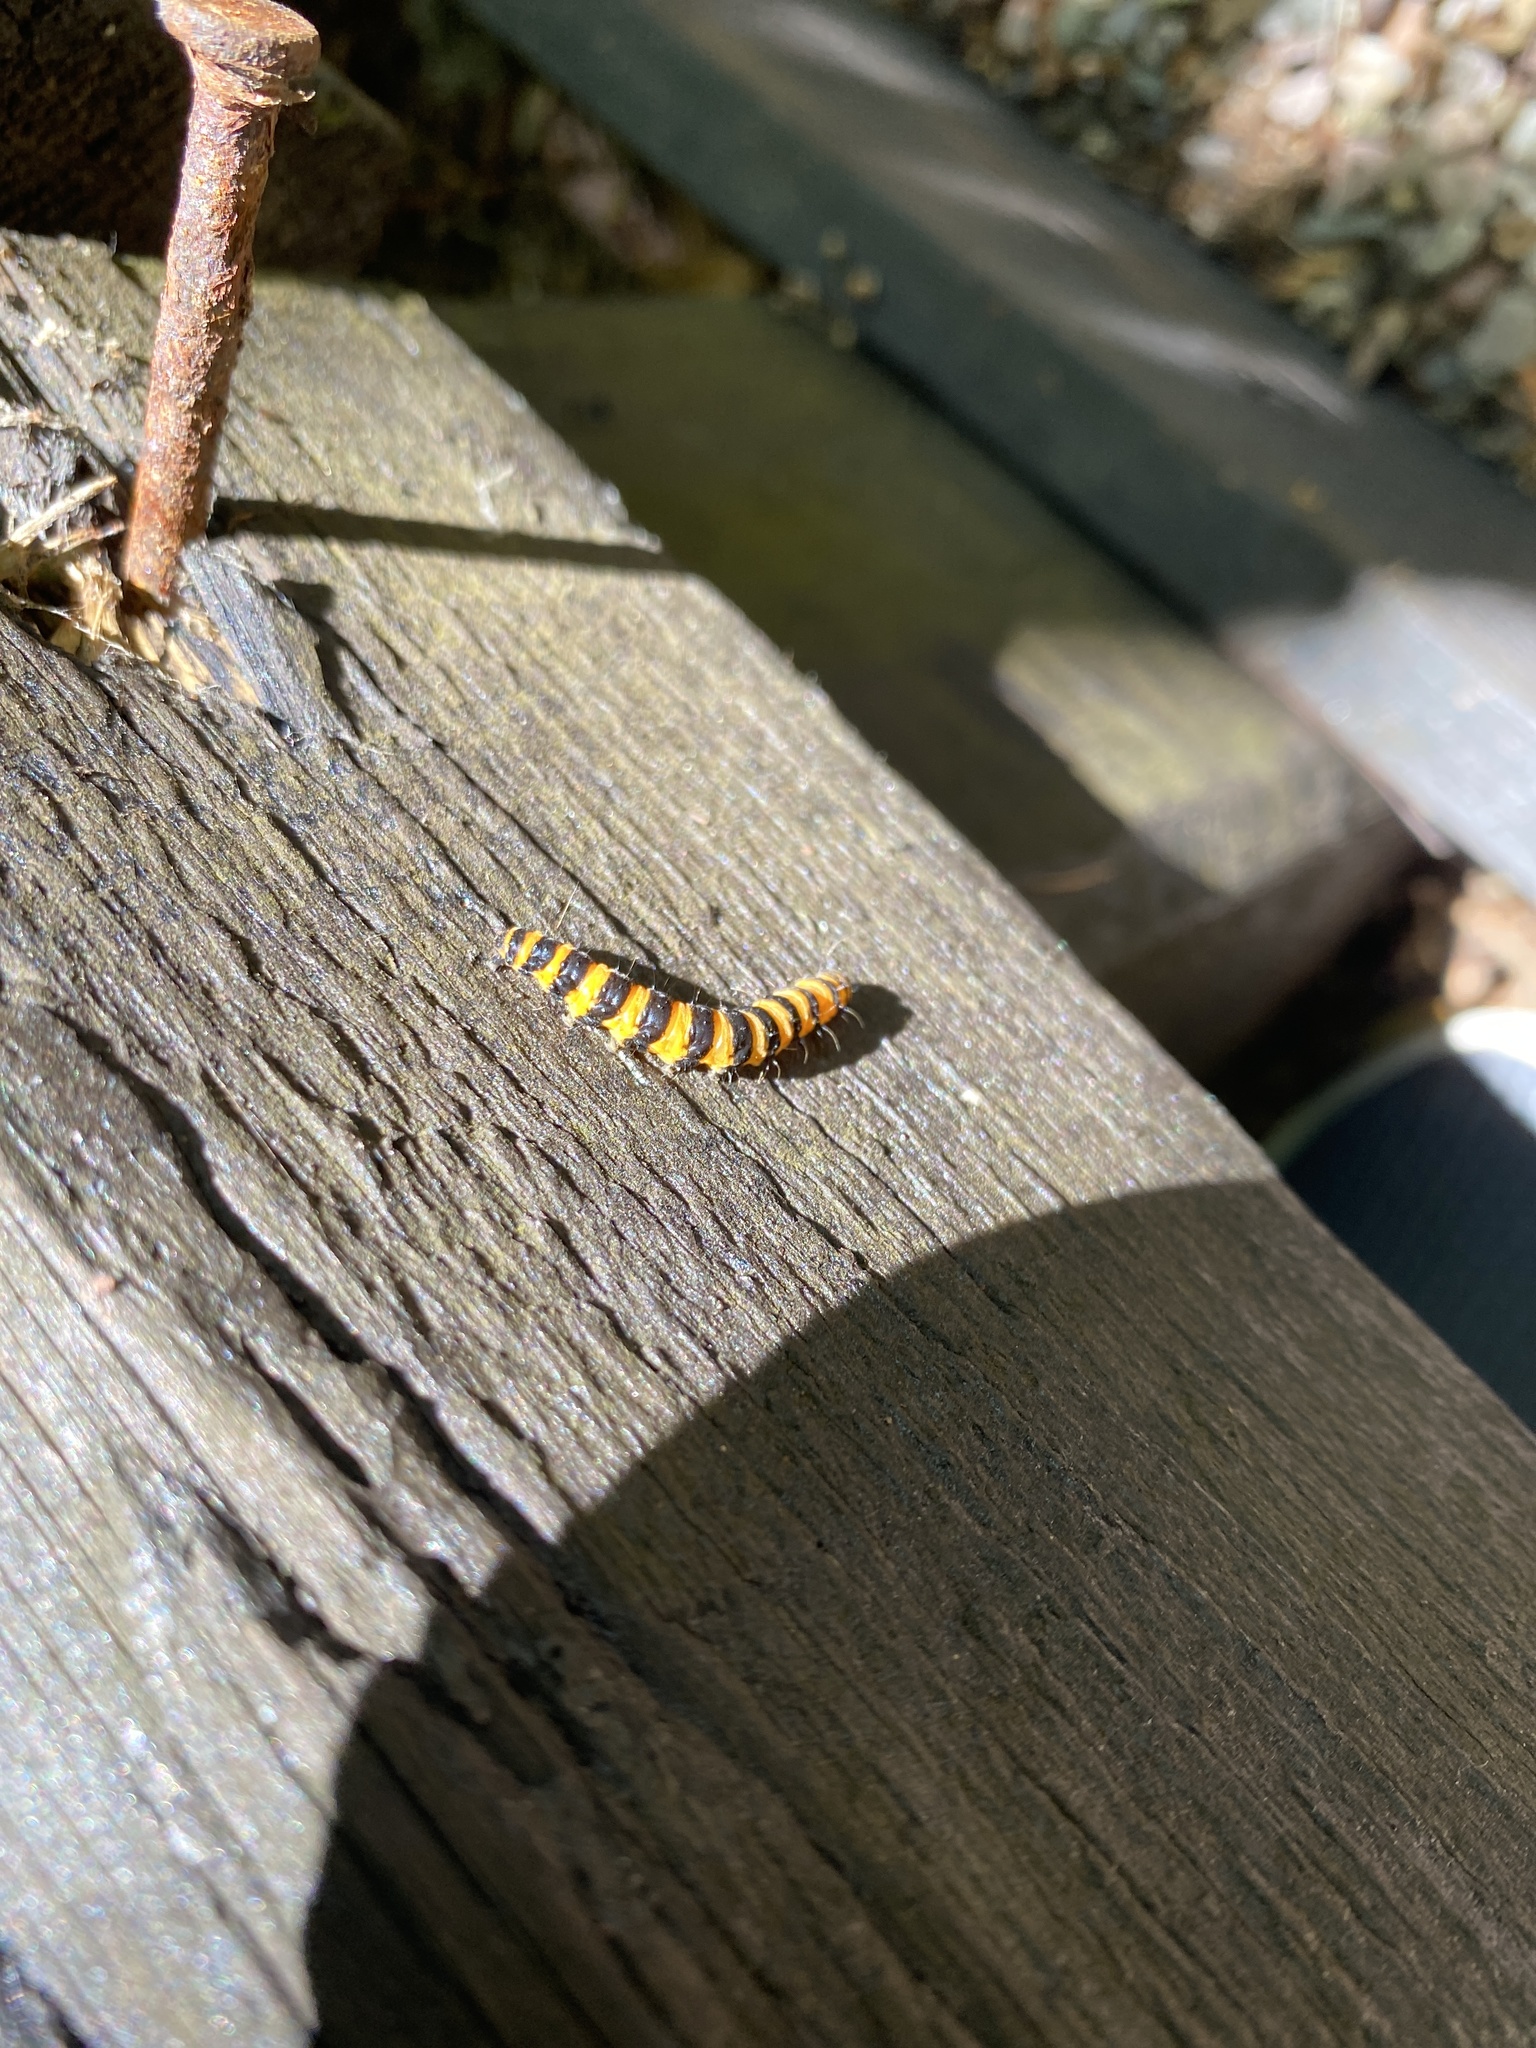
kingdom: Animalia
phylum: Arthropoda
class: Insecta
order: Lepidoptera
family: Erebidae
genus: Tyria
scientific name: Tyria jacobaeae
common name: Cinnabar
